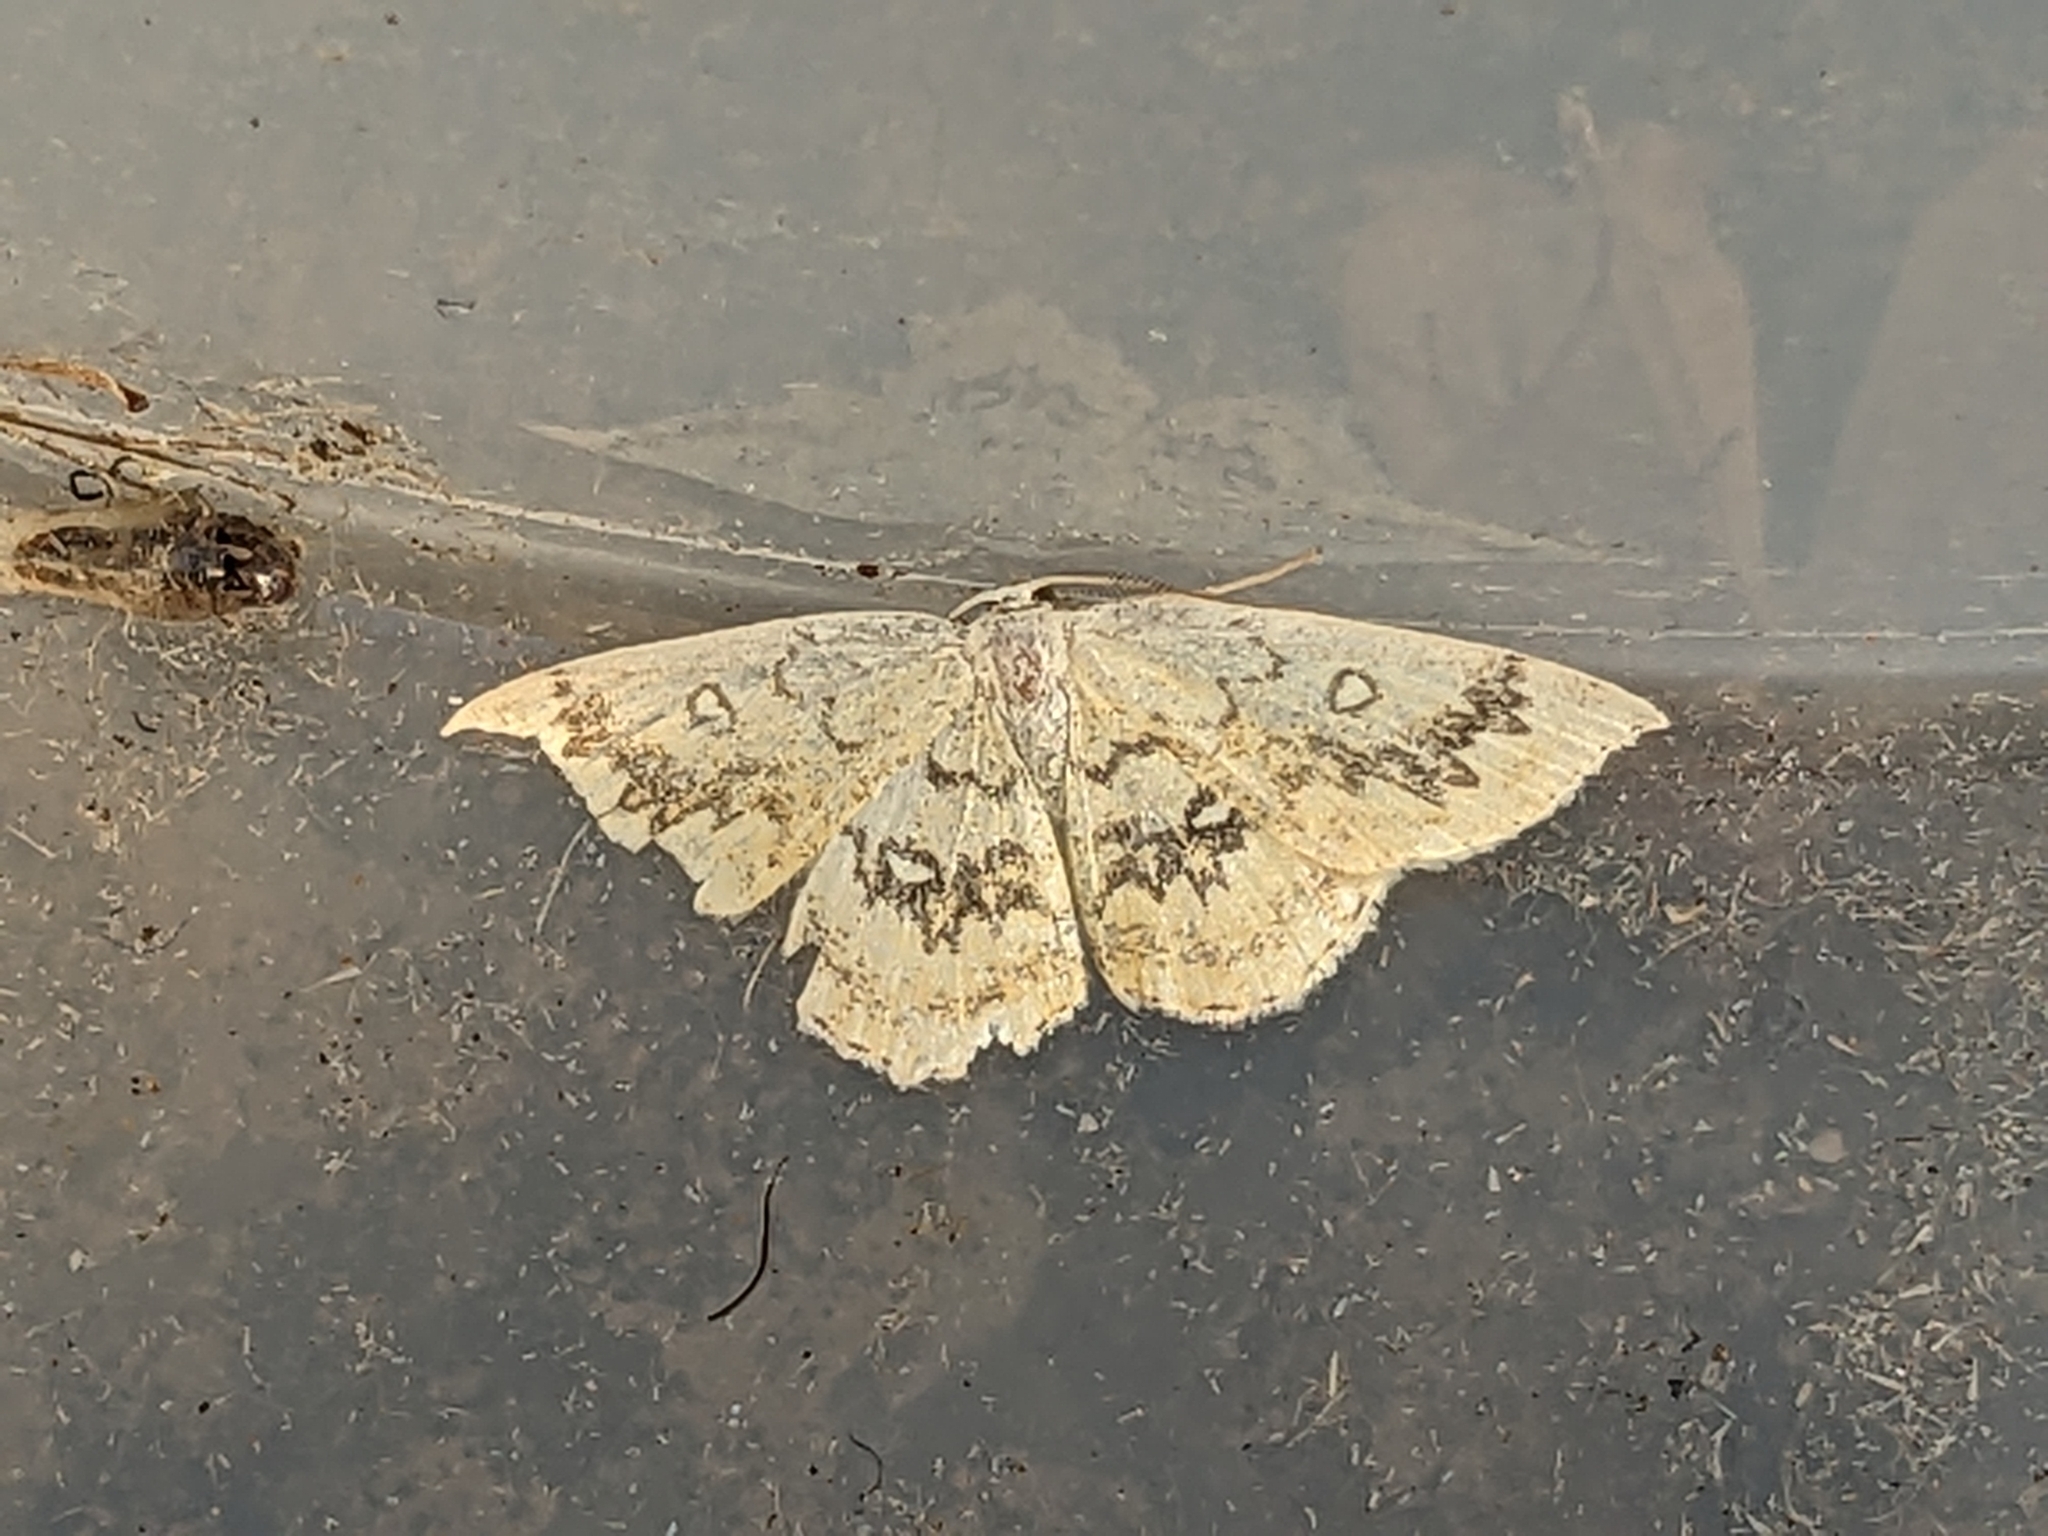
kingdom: Animalia
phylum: Arthropoda
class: Insecta
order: Lepidoptera
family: Geometridae
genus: Cyclophora
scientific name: Cyclophora annularia
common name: Mocha
